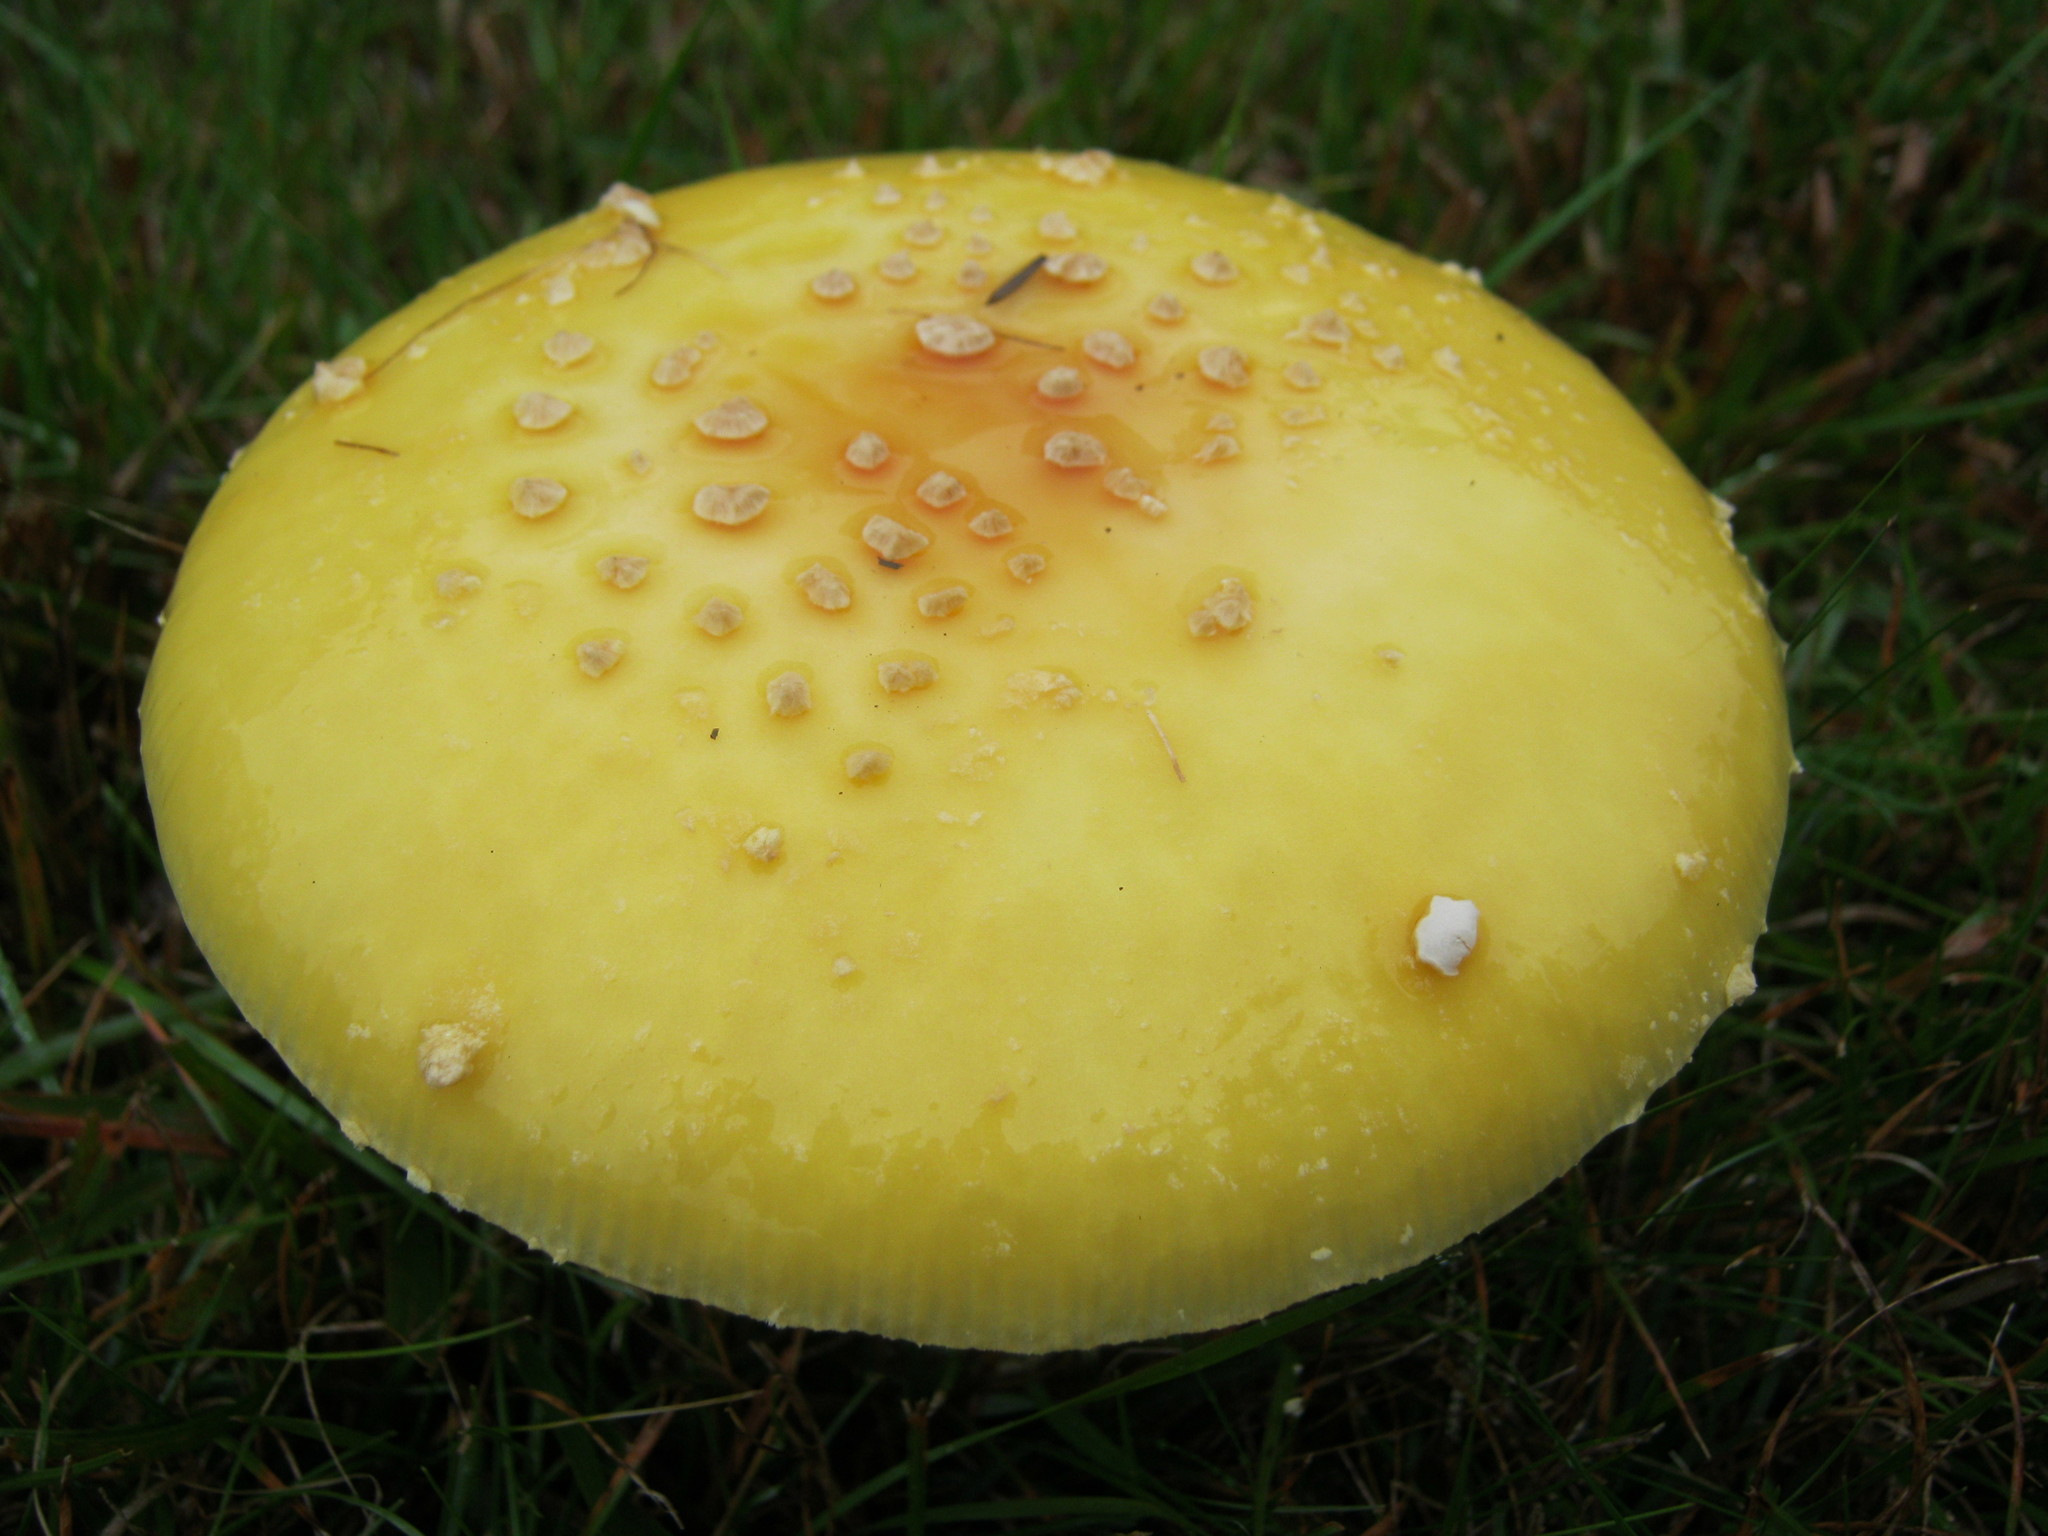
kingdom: Fungi
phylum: Basidiomycota
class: Agaricomycetes
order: Agaricales
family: Amanitaceae
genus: Amanita
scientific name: Amanita muscaria
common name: Fly agaric
